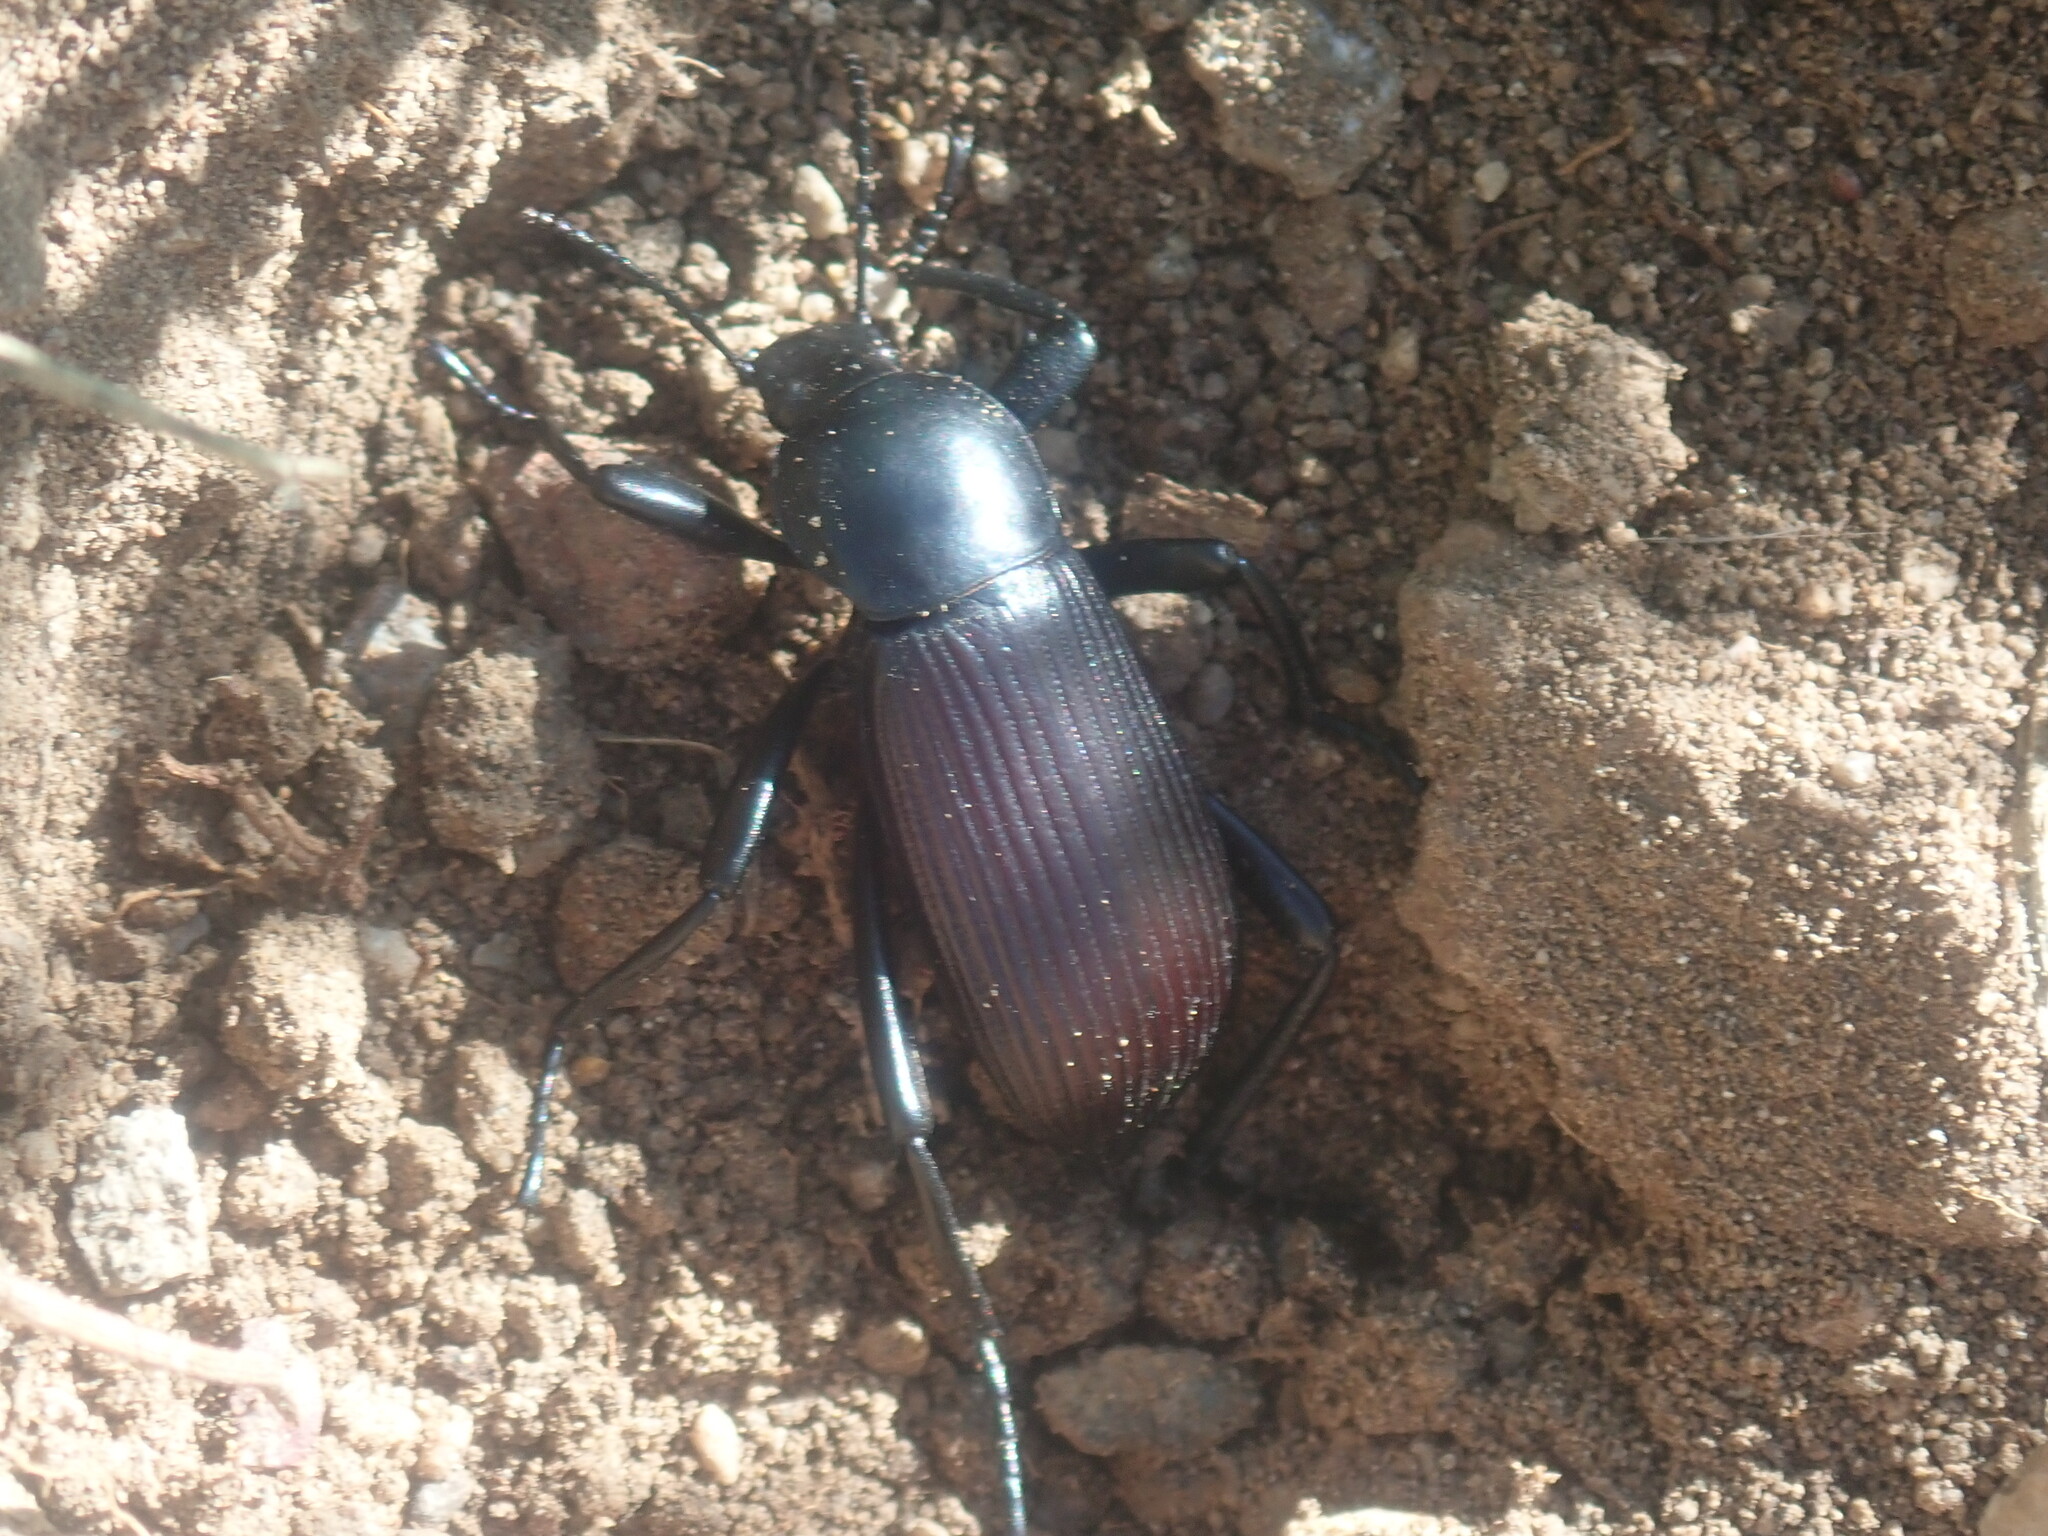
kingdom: Animalia
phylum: Arthropoda
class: Insecta
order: Coleoptera
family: Tenebrionidae
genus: Eleodes
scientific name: Eleodes obscura
